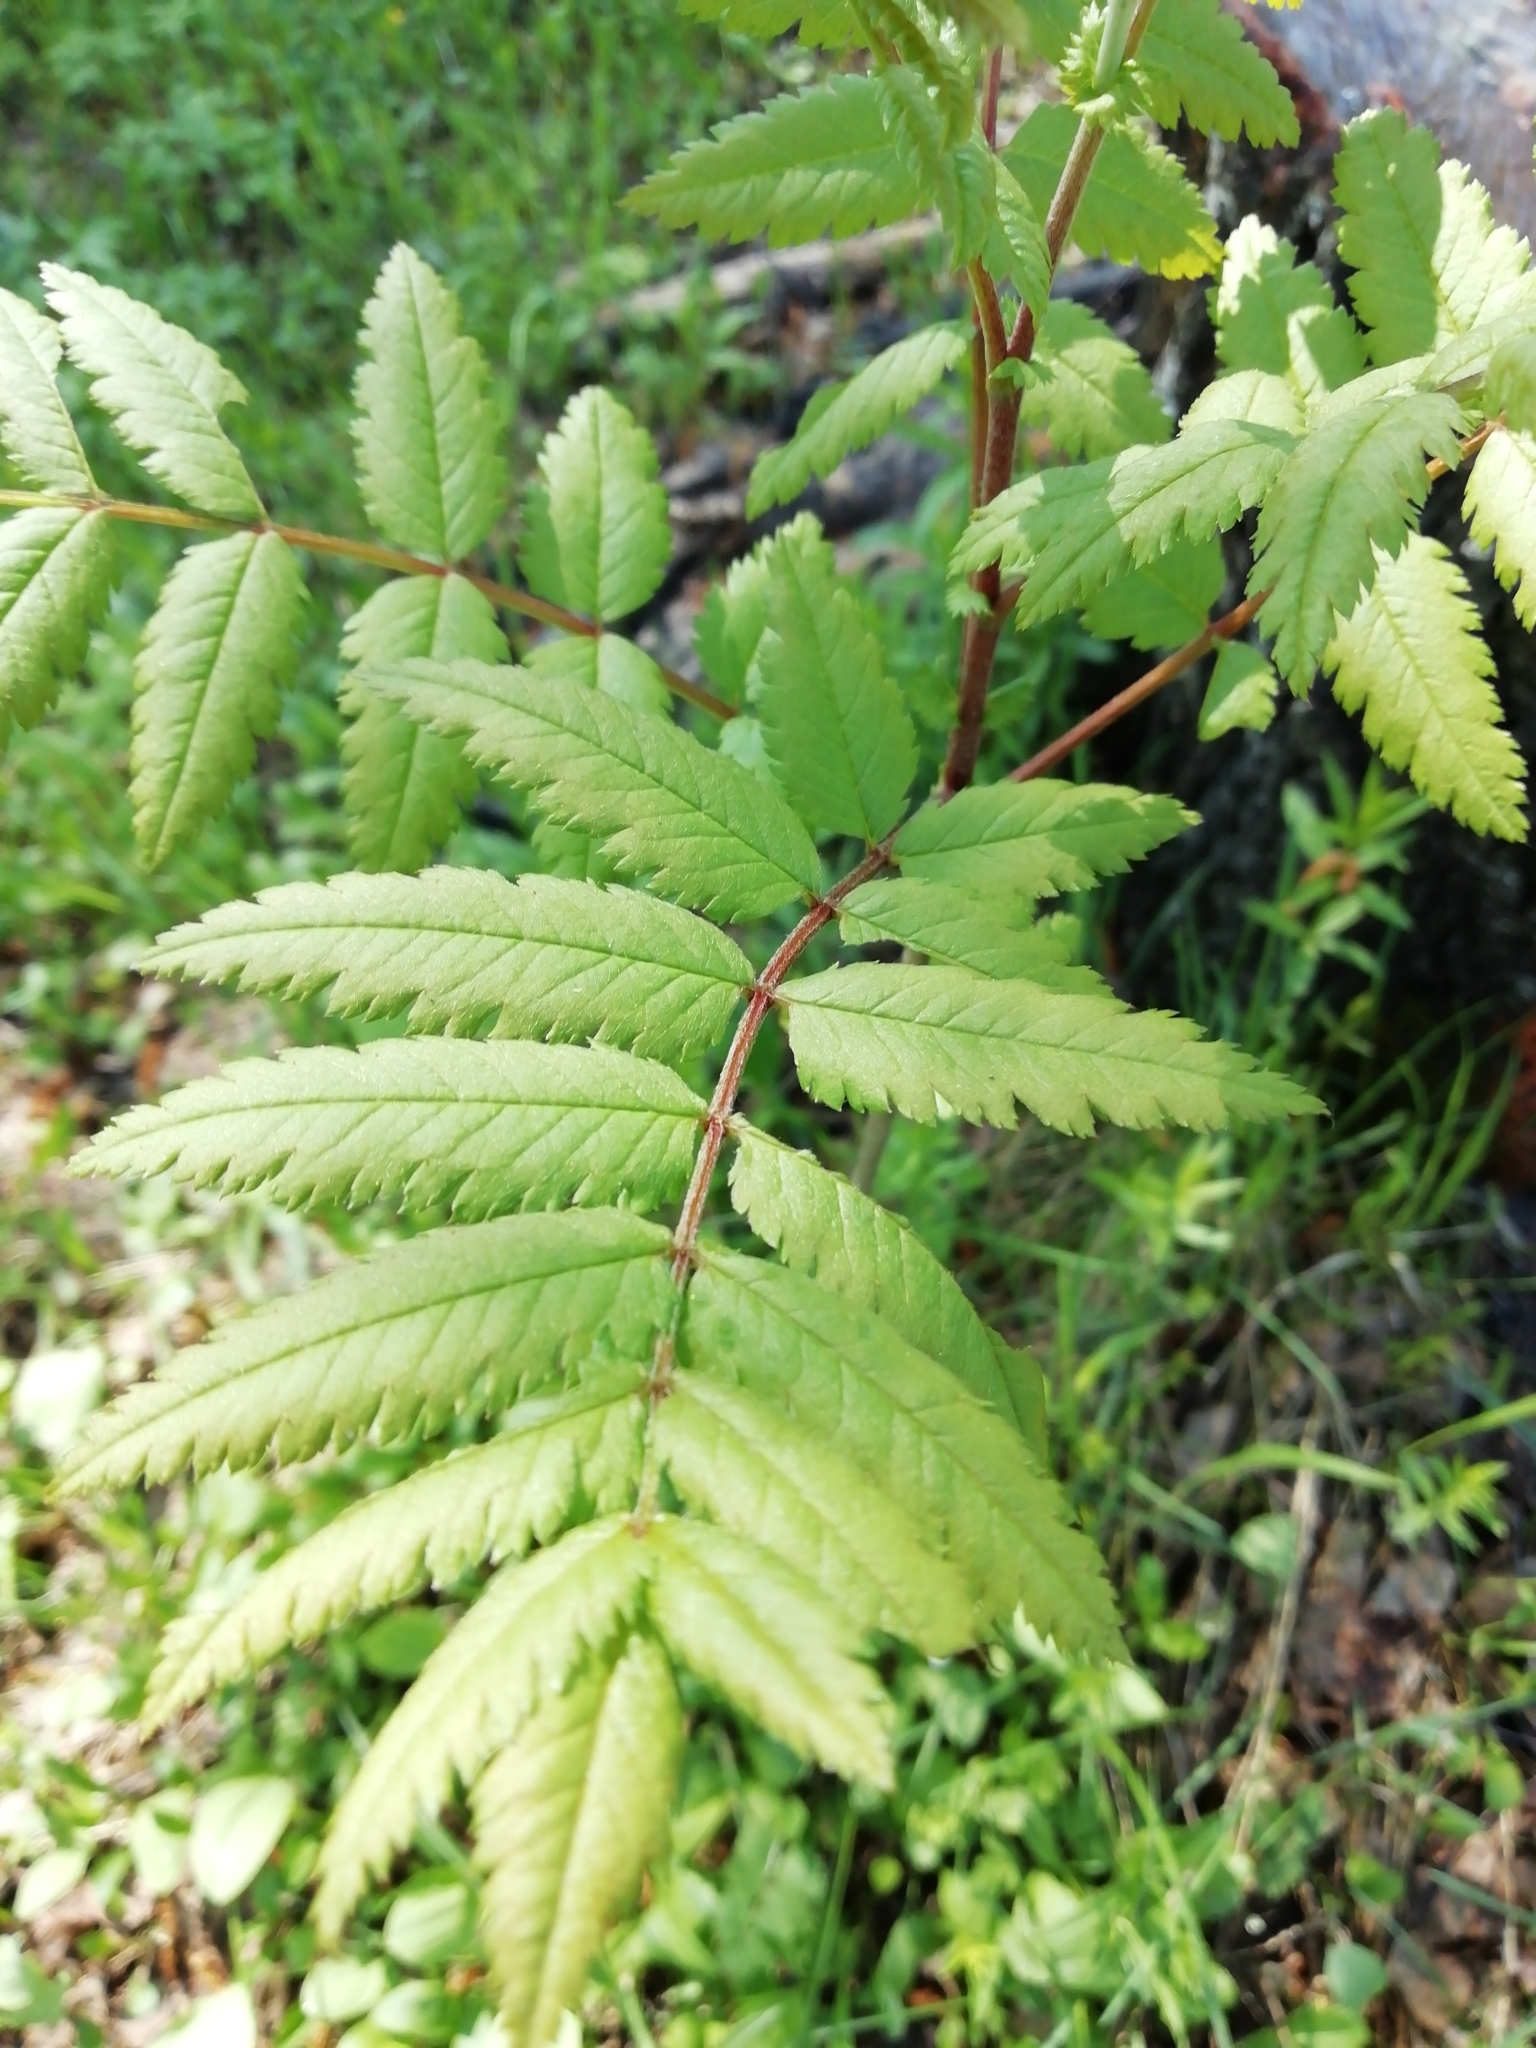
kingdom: Plantae
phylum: Tracheophyta
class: Magnoliopsida
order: Rosales
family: Rosaceae
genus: Sorbus
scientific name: Sorbus aucuparia
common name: Rowan
